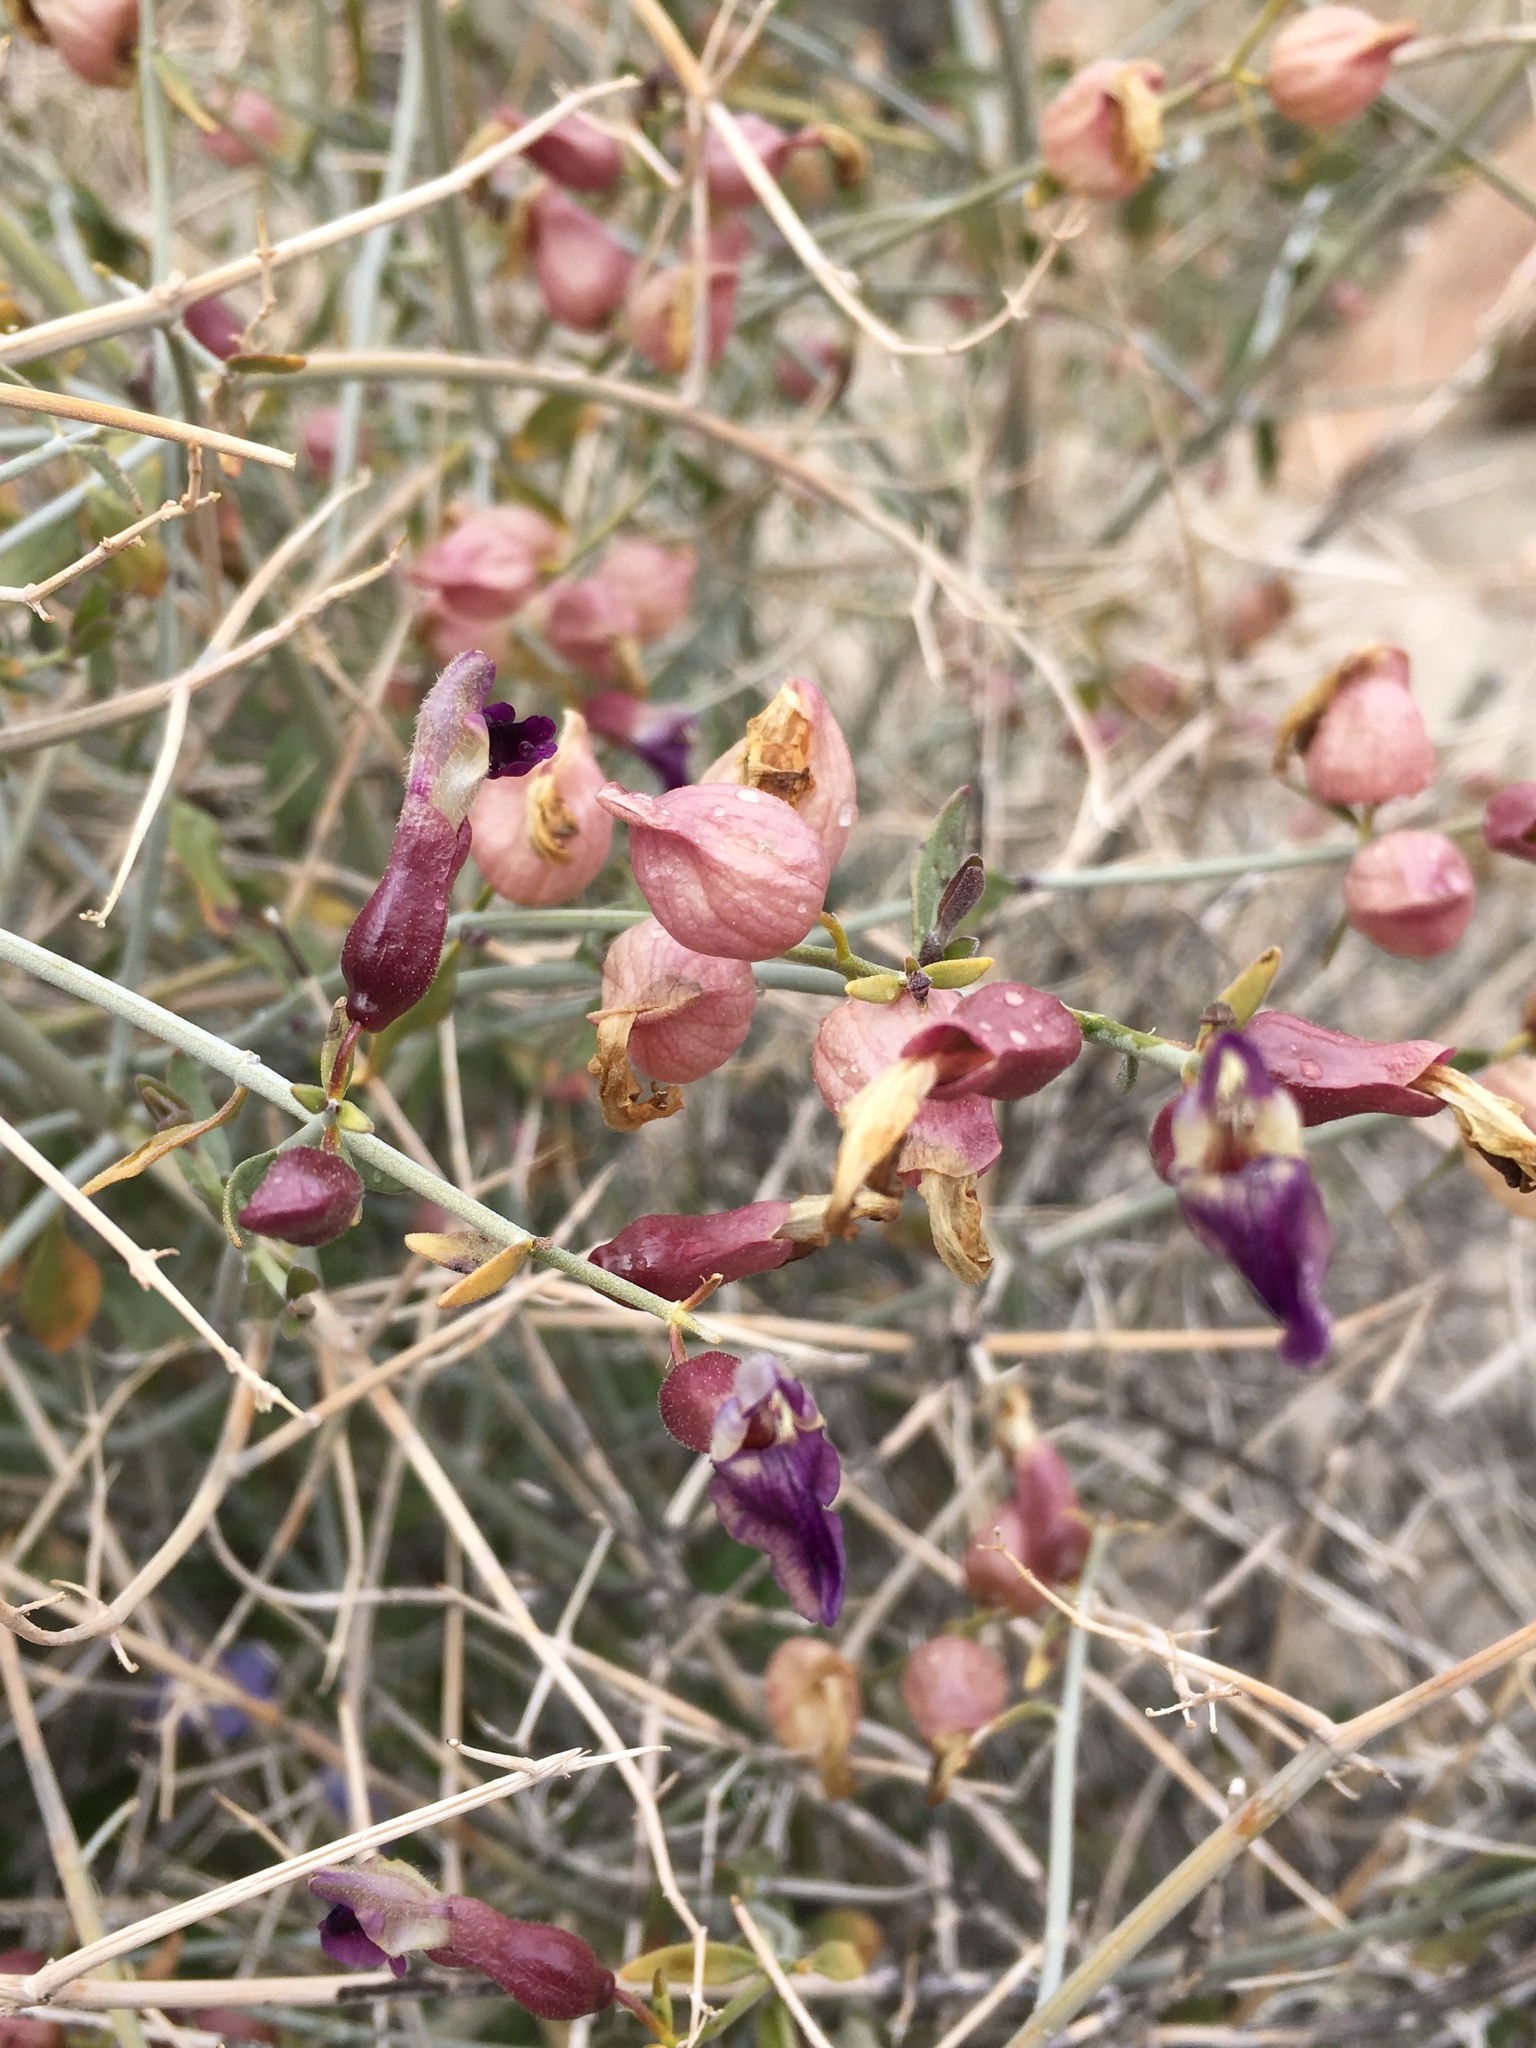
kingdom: Plantae
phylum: Tracheophyta
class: Magnoliopsida
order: Lamiales
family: Lamiaceae
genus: Scutellaria
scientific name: Scutellaria mexicana
